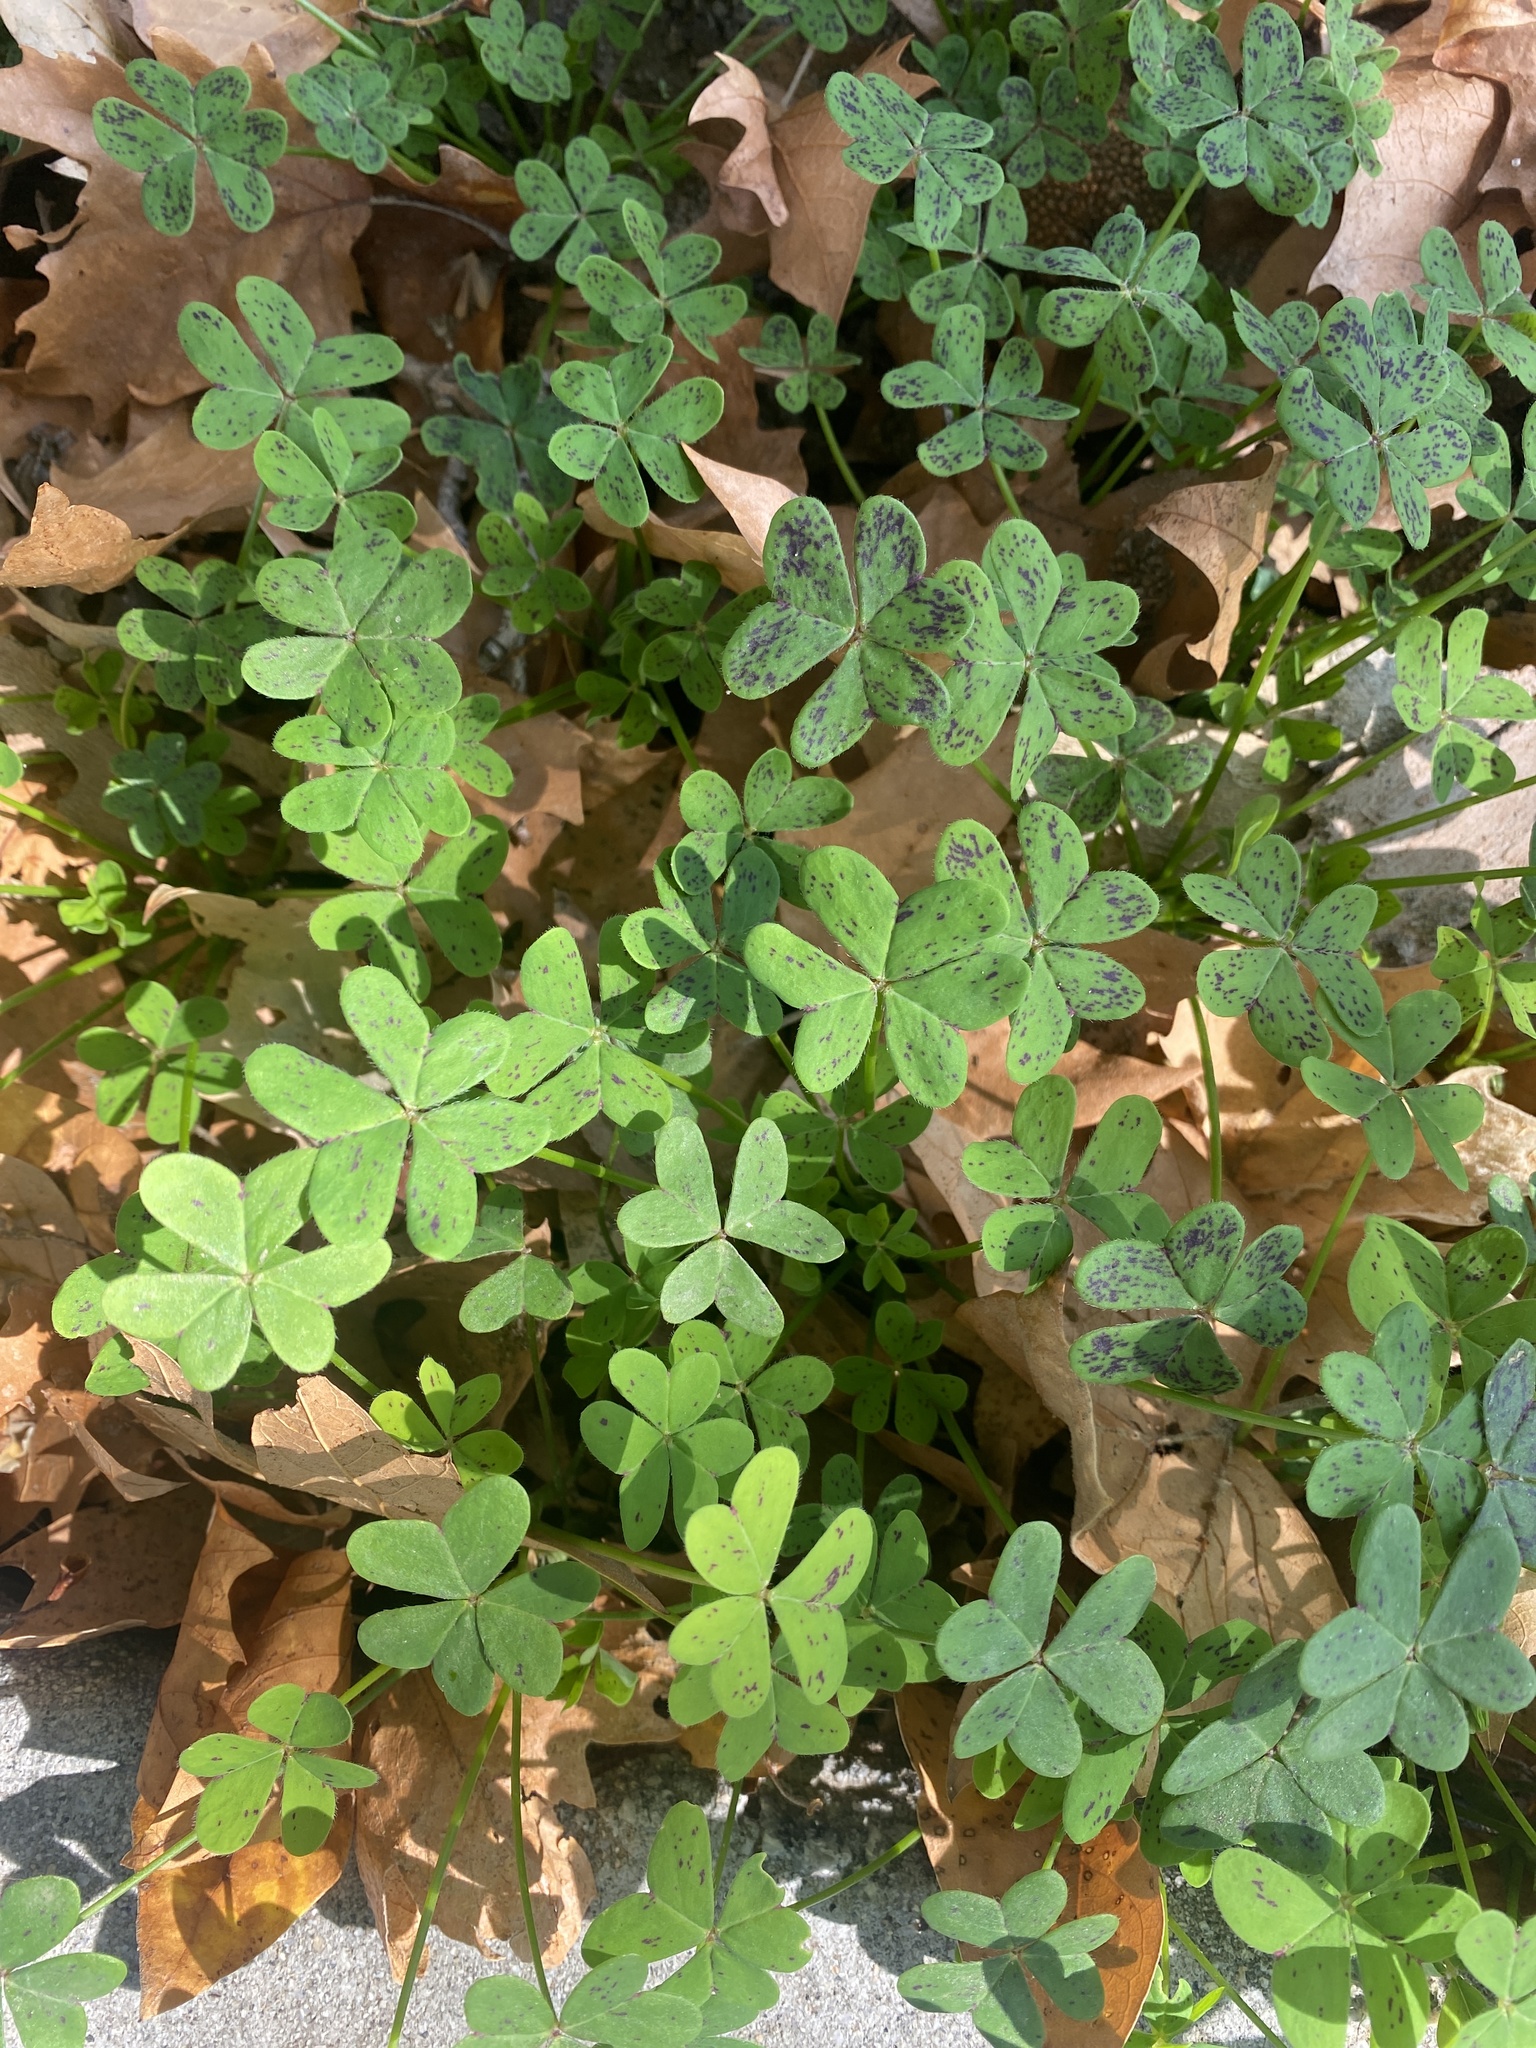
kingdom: Plantae
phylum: Tracheophyta
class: Magnoliopsida
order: Oxalidales
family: Oxalidaceae
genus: Oxalis
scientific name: Oxalis pes-caprae
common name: Bermuda-buttercup
